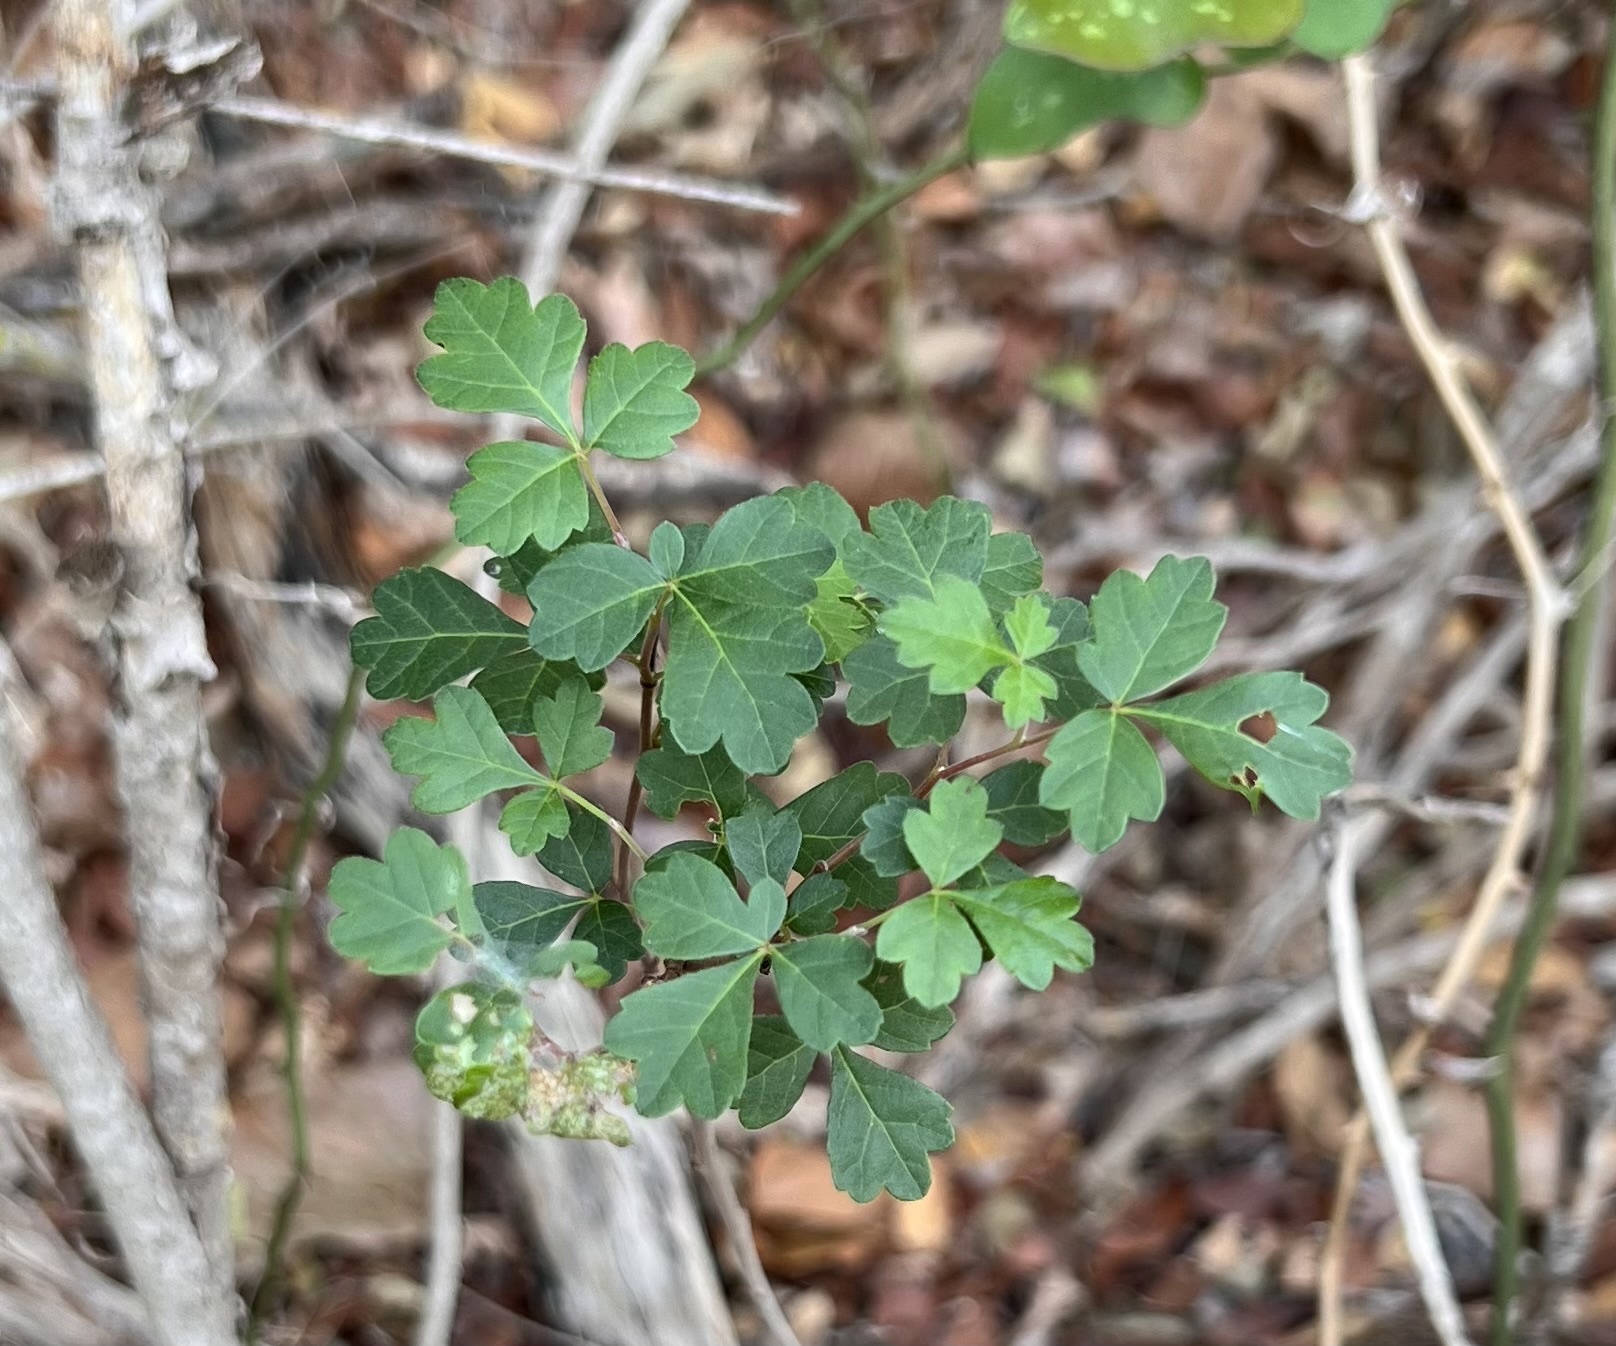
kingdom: Plantae
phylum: Tracheophyta
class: Magnoliopsida
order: Sapindales
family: Anacardiaceae
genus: Rhus
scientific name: Rhus aromatica
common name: Aromatic sumac
